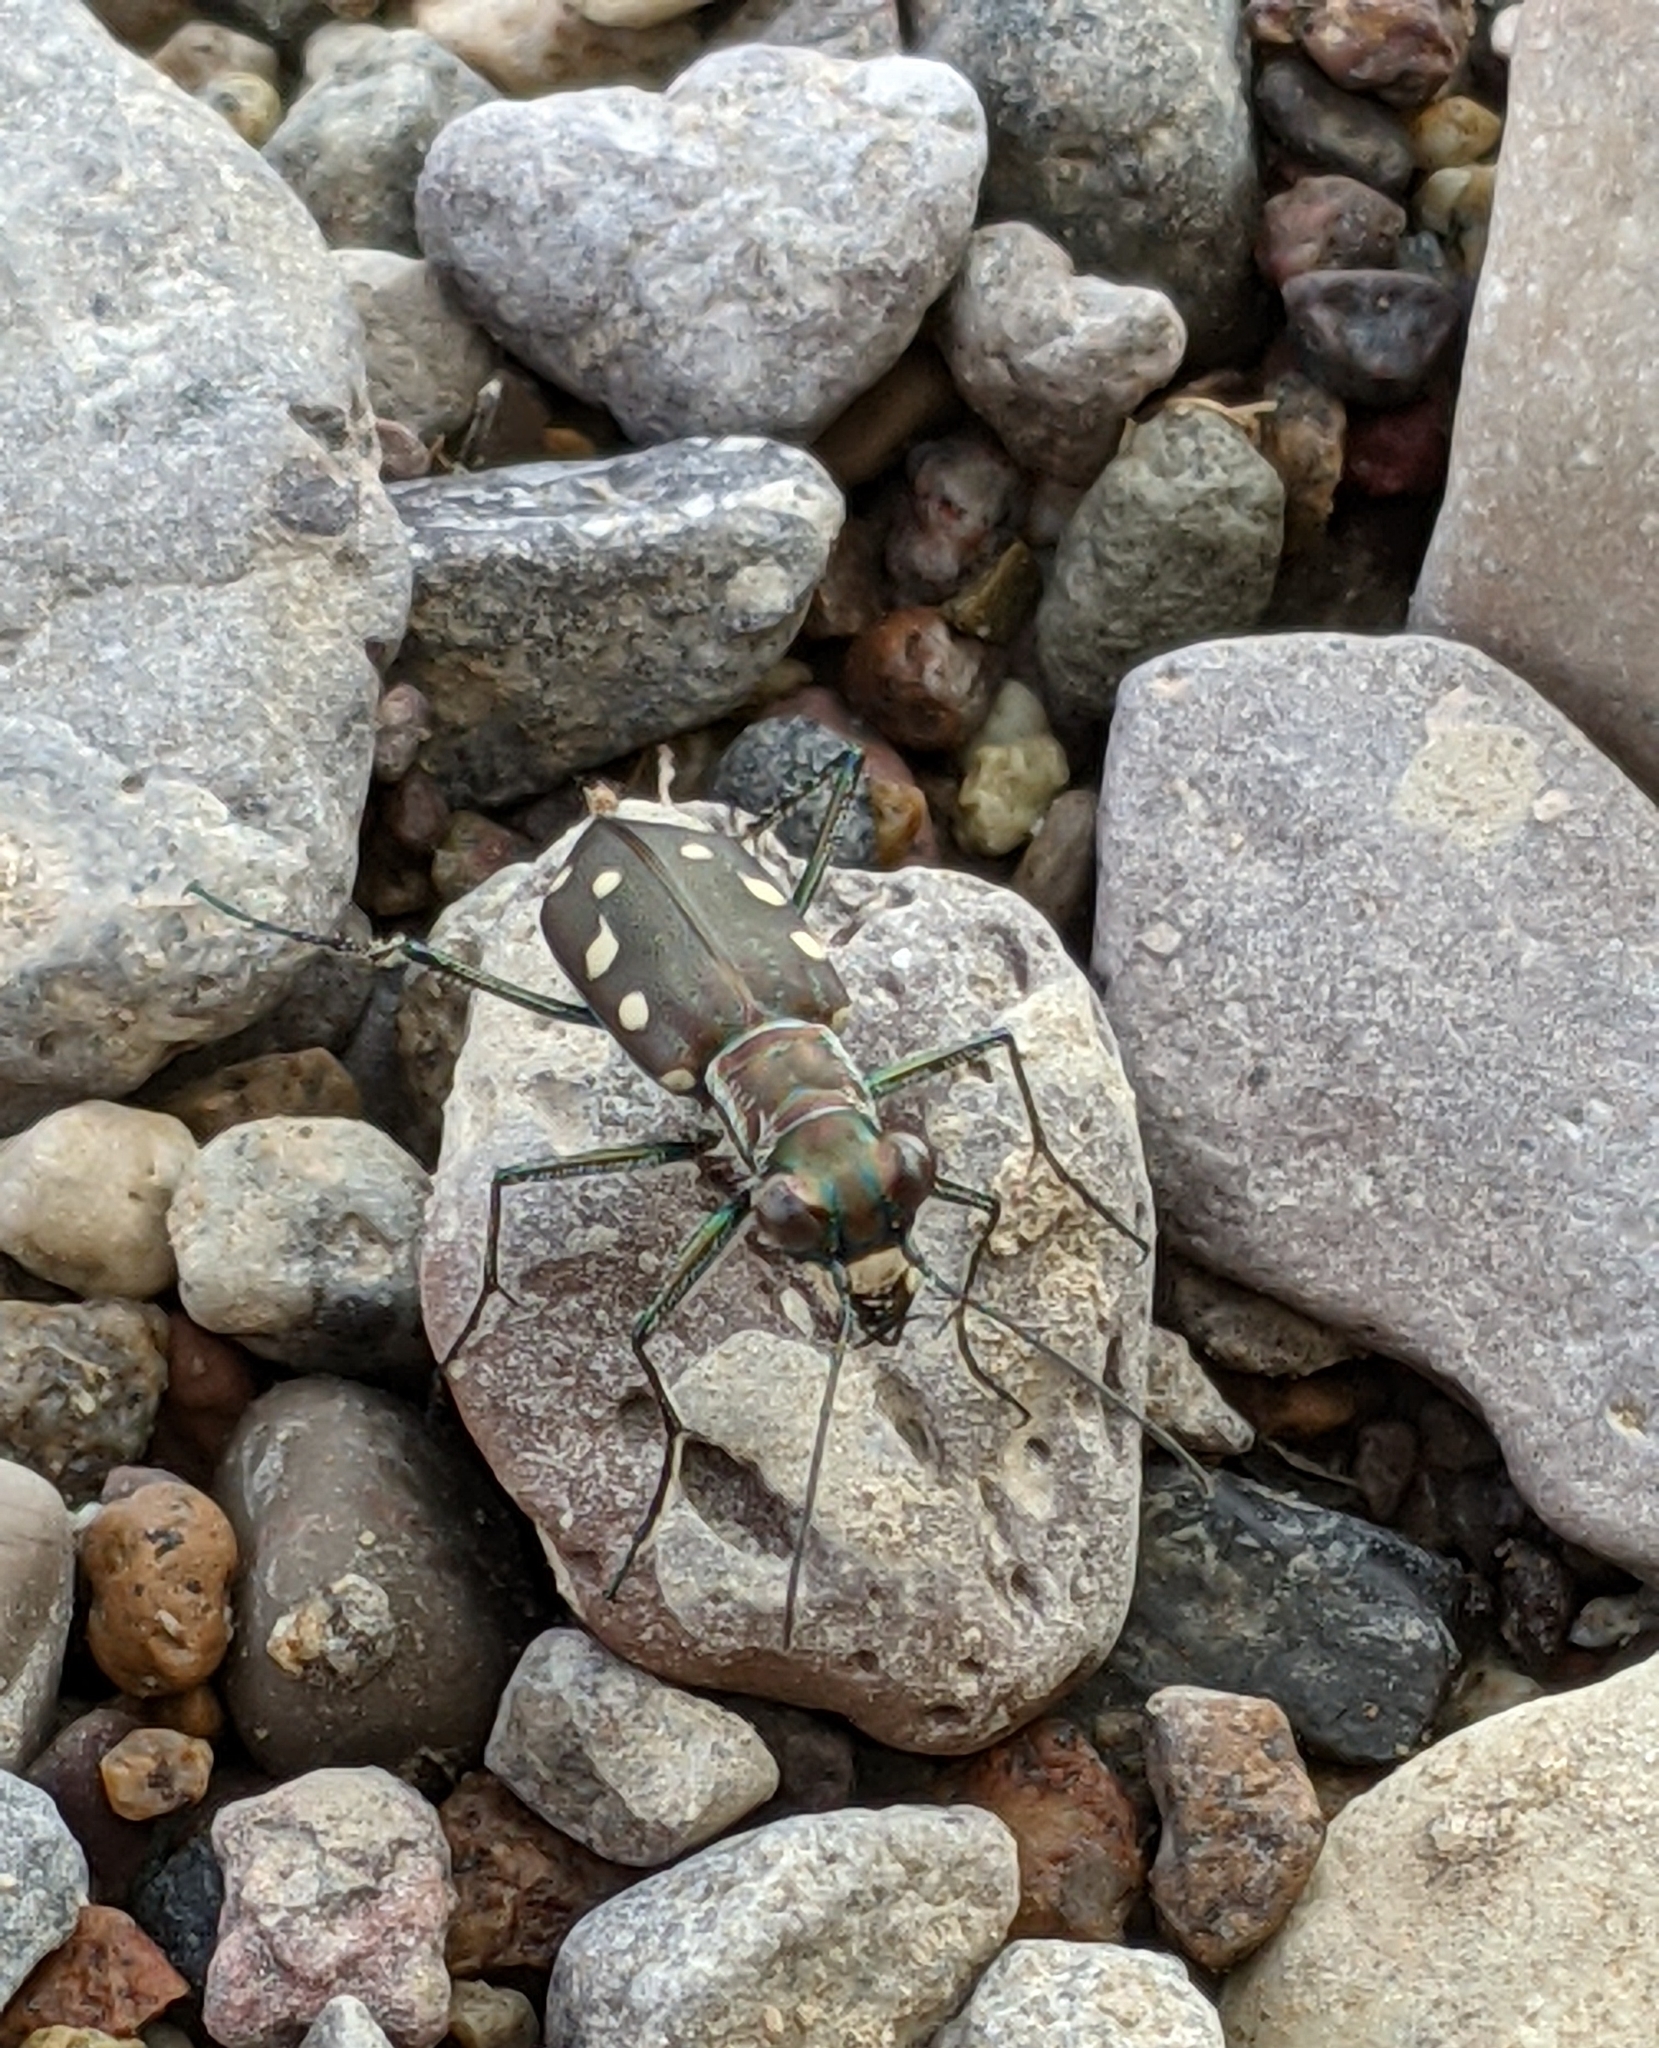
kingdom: Animalia
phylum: Arthropoda
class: Insecta
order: Coleoptera
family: Carabidae
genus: Cicindela
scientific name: Cicindela ocellata
